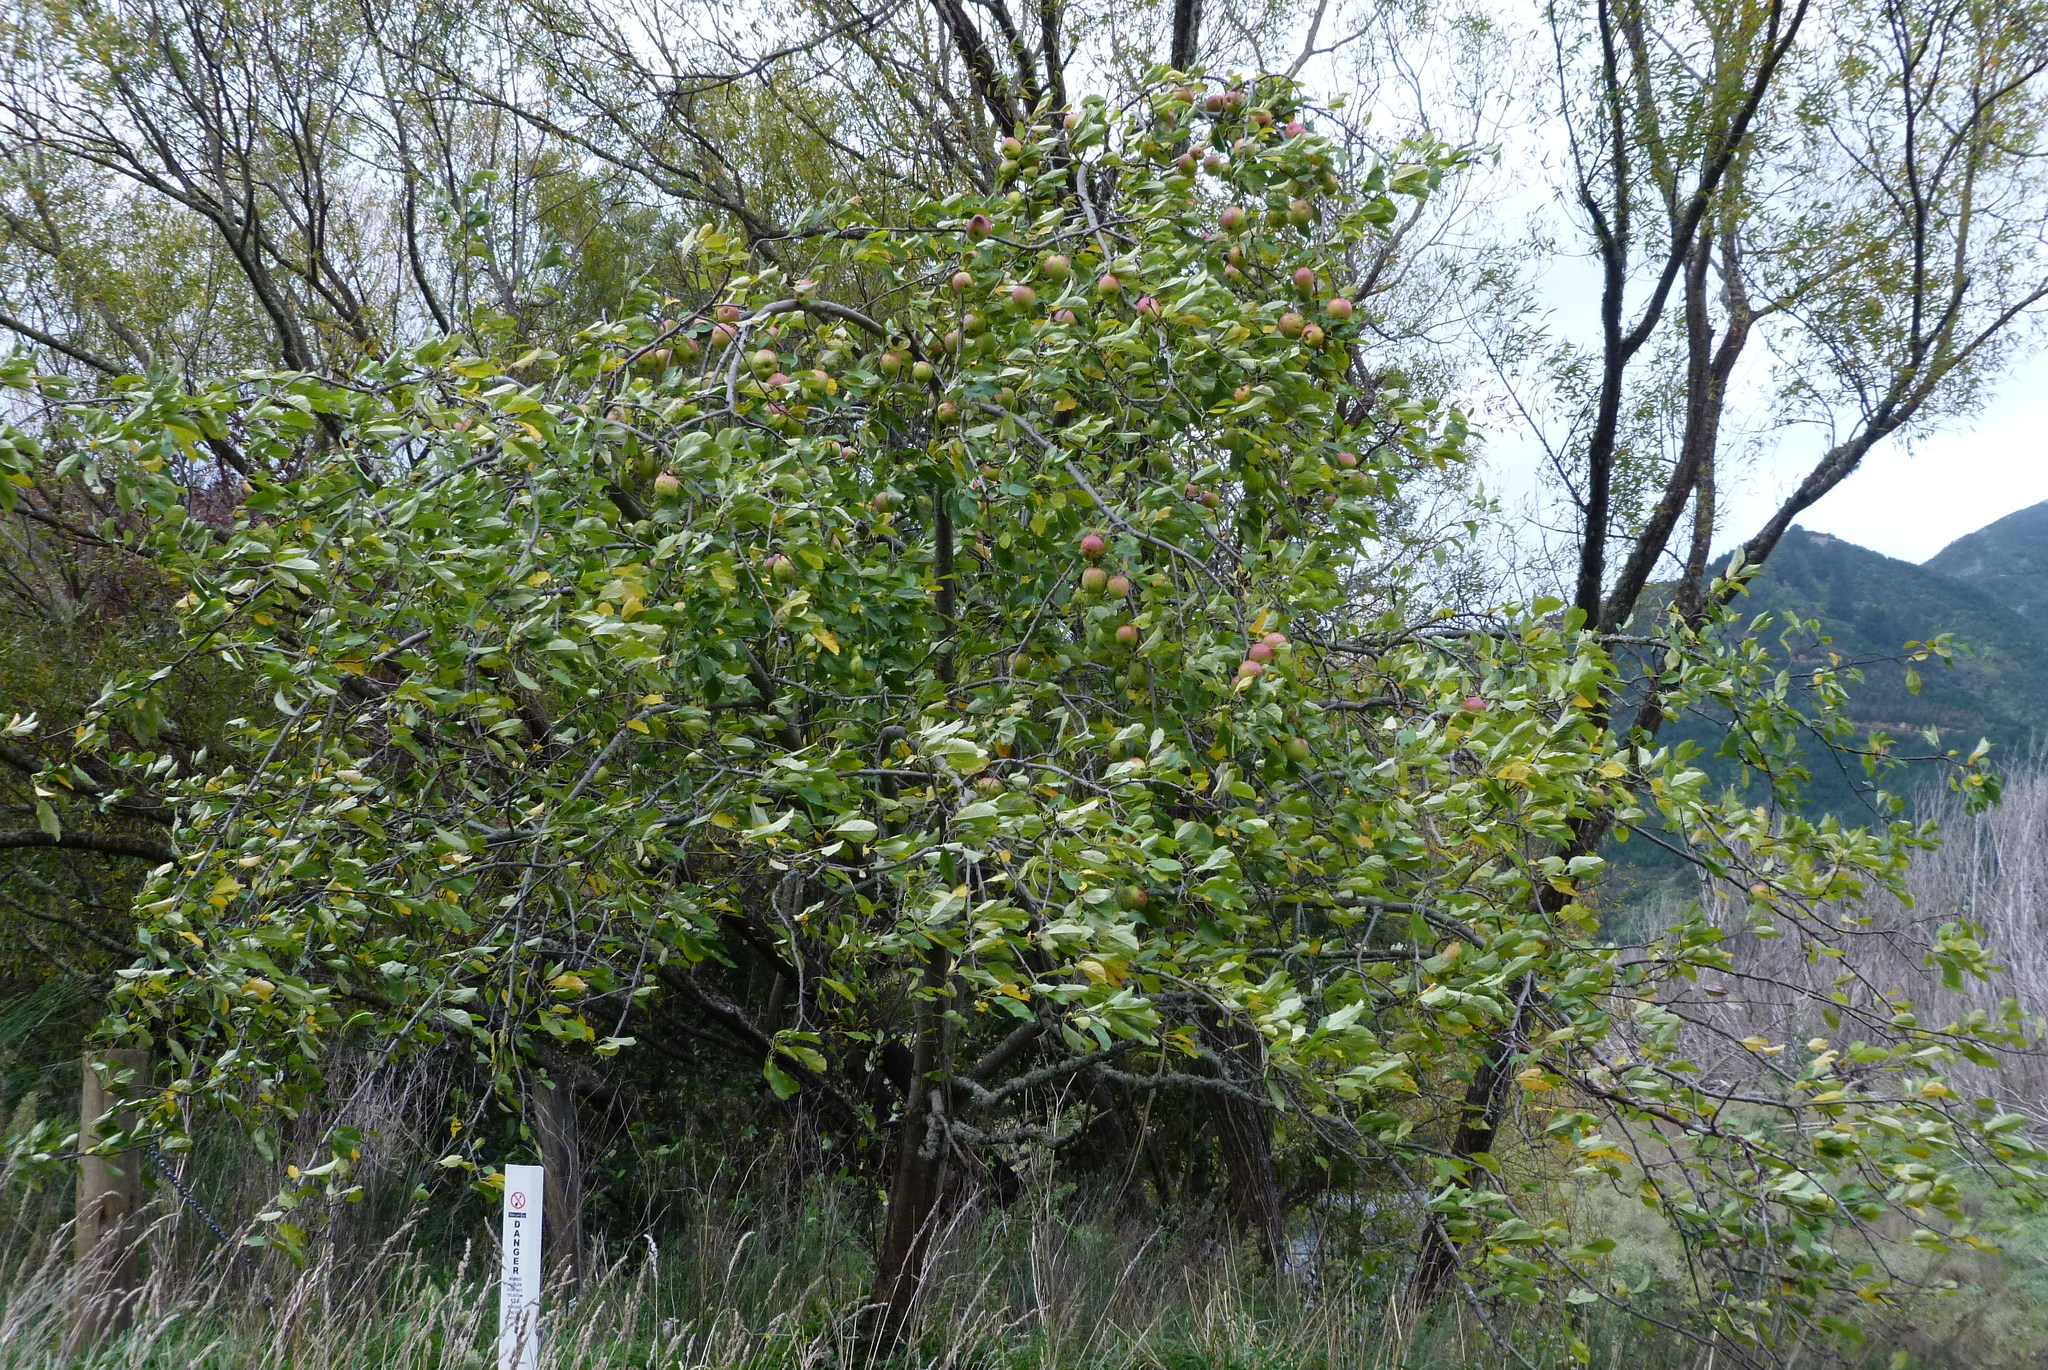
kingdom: Plantae
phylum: Tracheophyta
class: Magnoliopsida
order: Rosales
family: Rosaceae
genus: Malus
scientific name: Malus domestica
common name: Apple
